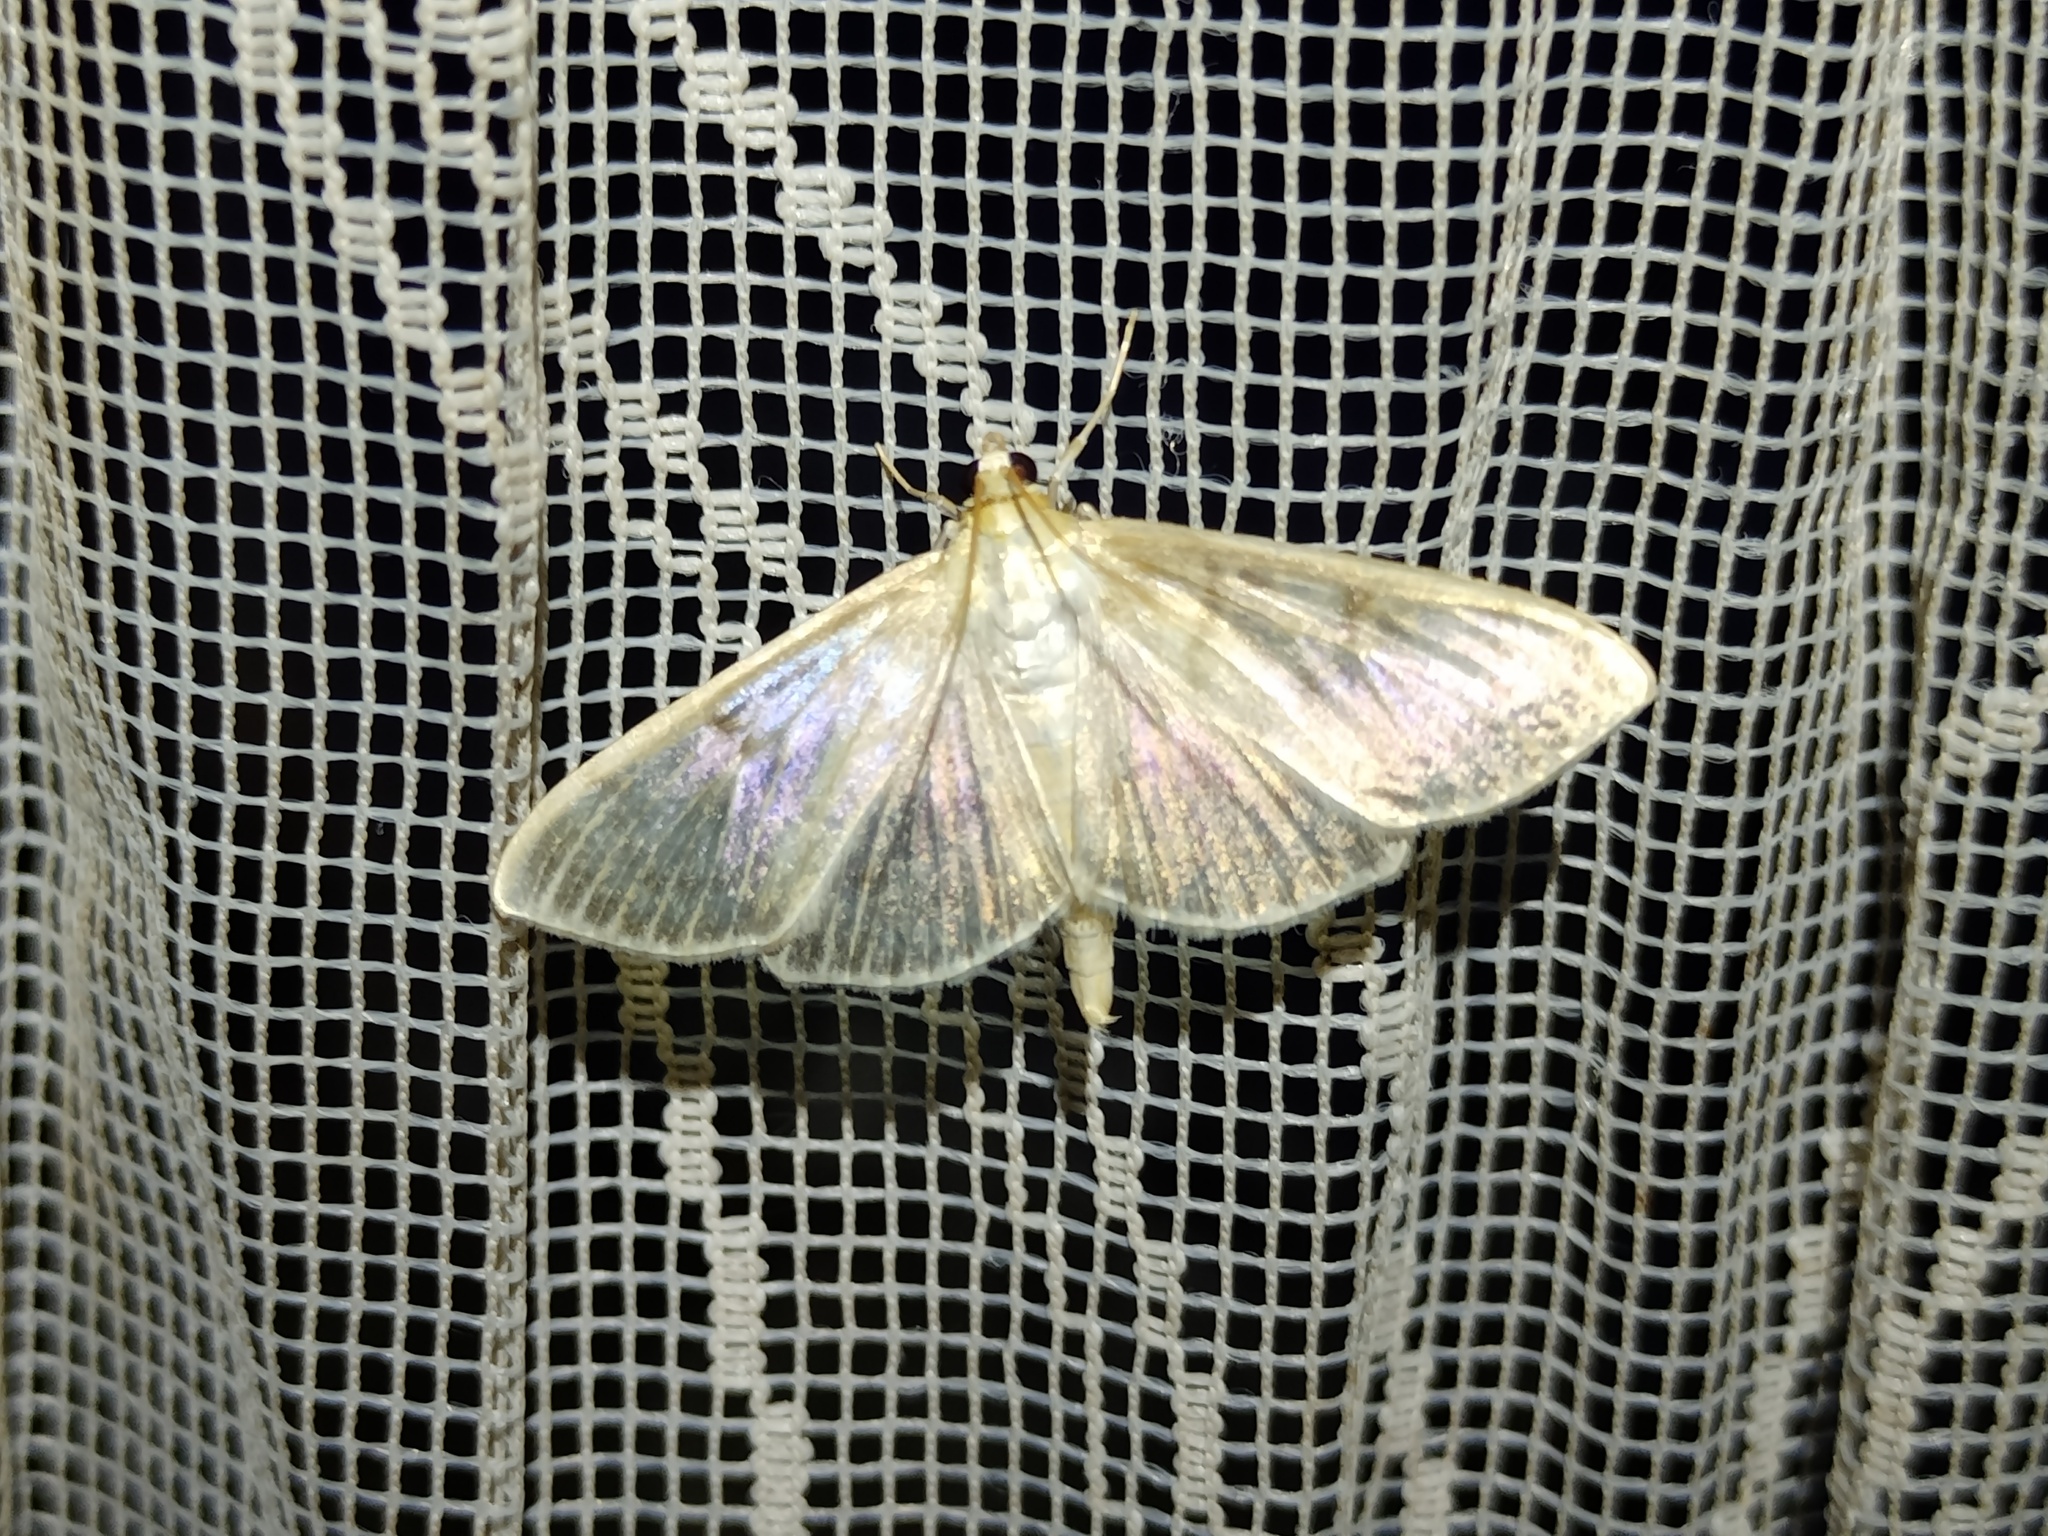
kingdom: Animalia
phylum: Arthropoda
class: Insecta
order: Lepidoptera
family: Crambidae
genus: Patania
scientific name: Patania ruralis
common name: Mother of pearl
